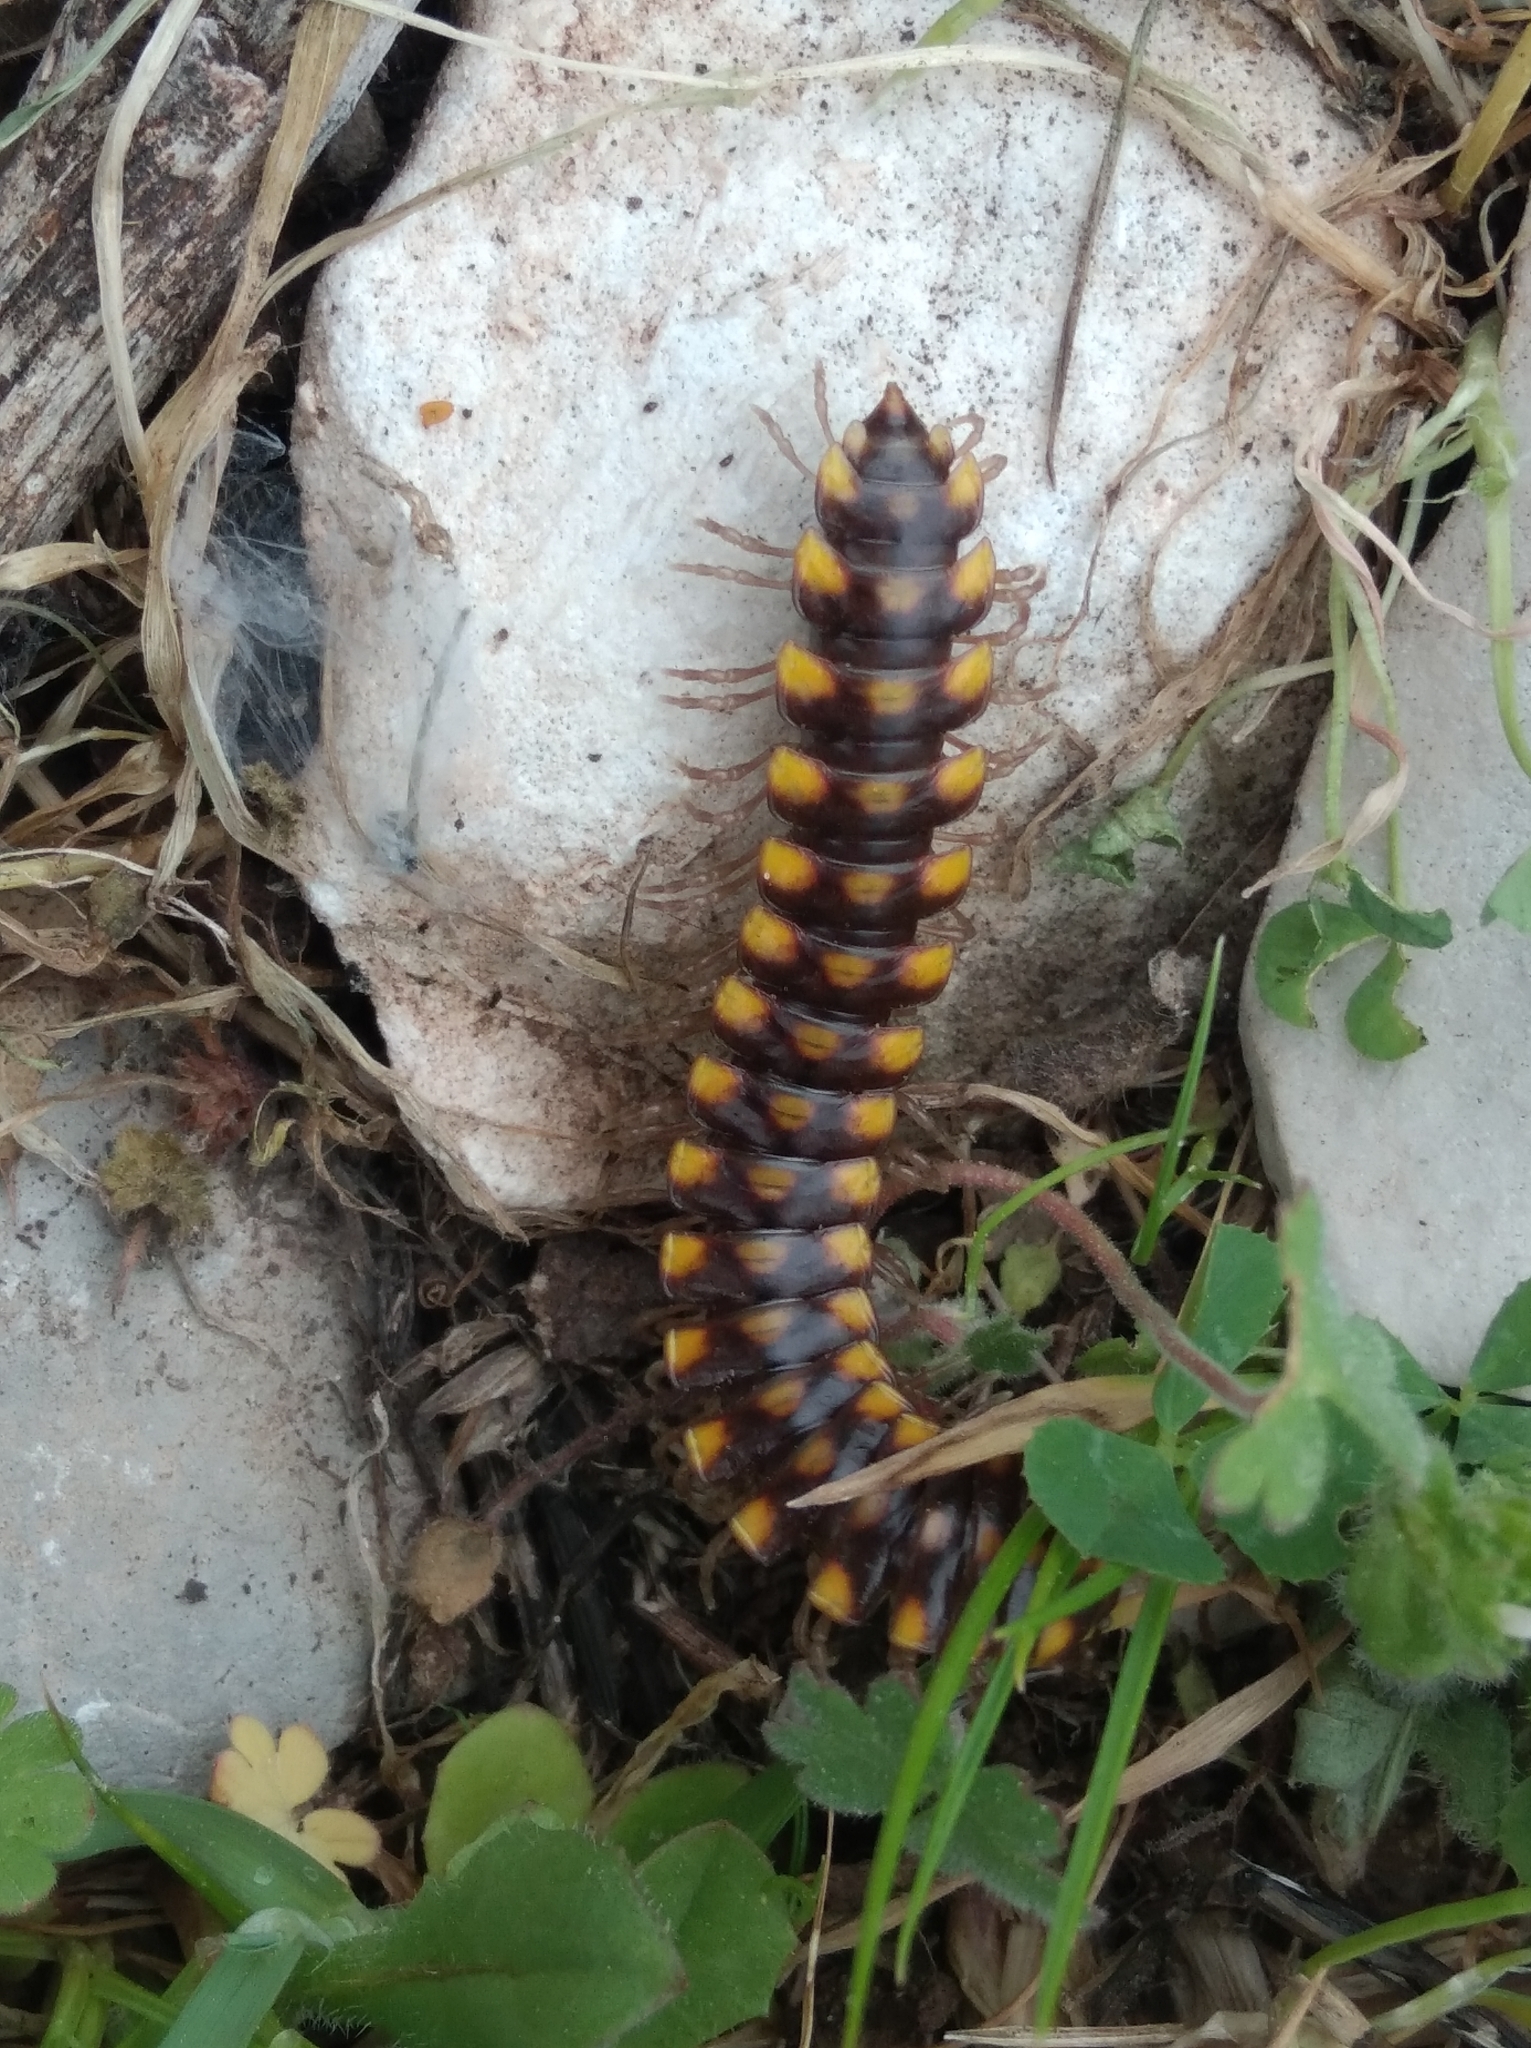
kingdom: Animalia
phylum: Arthropoda
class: Diplopoda
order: Polydesmida
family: Xystodesmidae
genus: Melaphe
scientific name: Melaphe vestita
